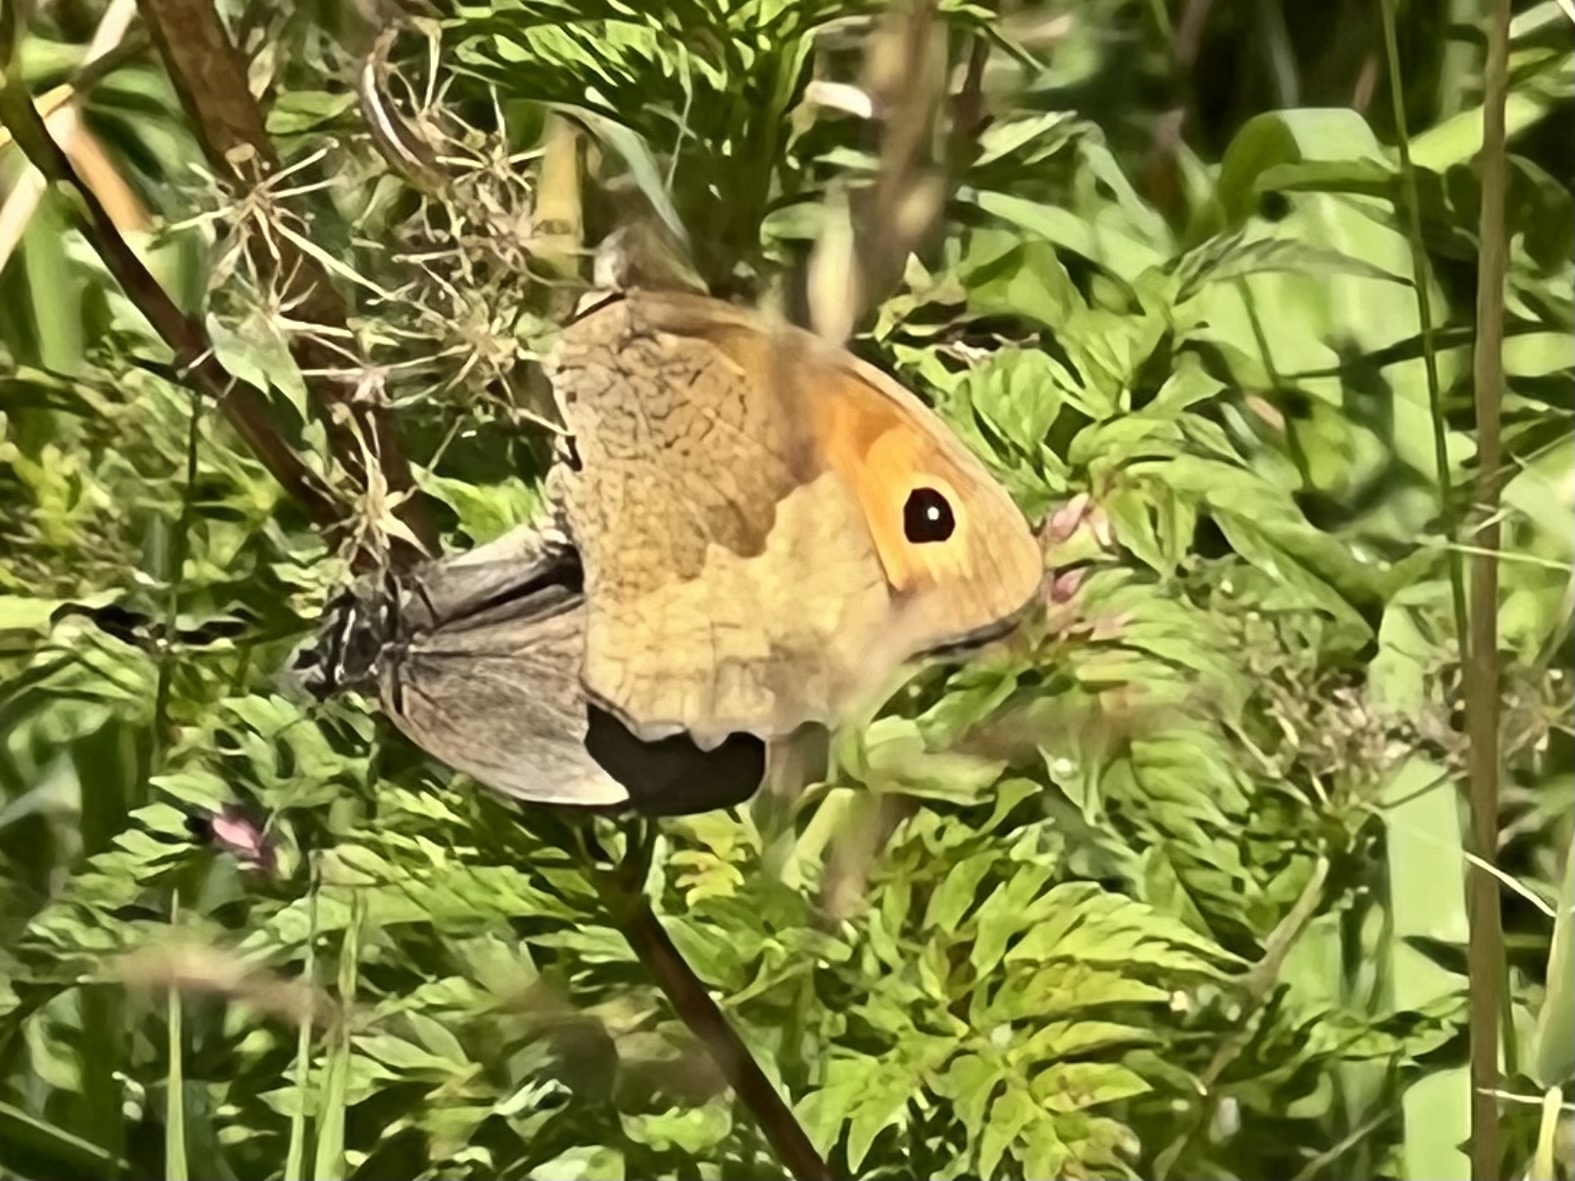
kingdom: Animalia
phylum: Arthropoda
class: Insecta
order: Lepidoptera
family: Nymphalidae
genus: Maniola
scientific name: Maniola jurtina
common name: Meadow brown
